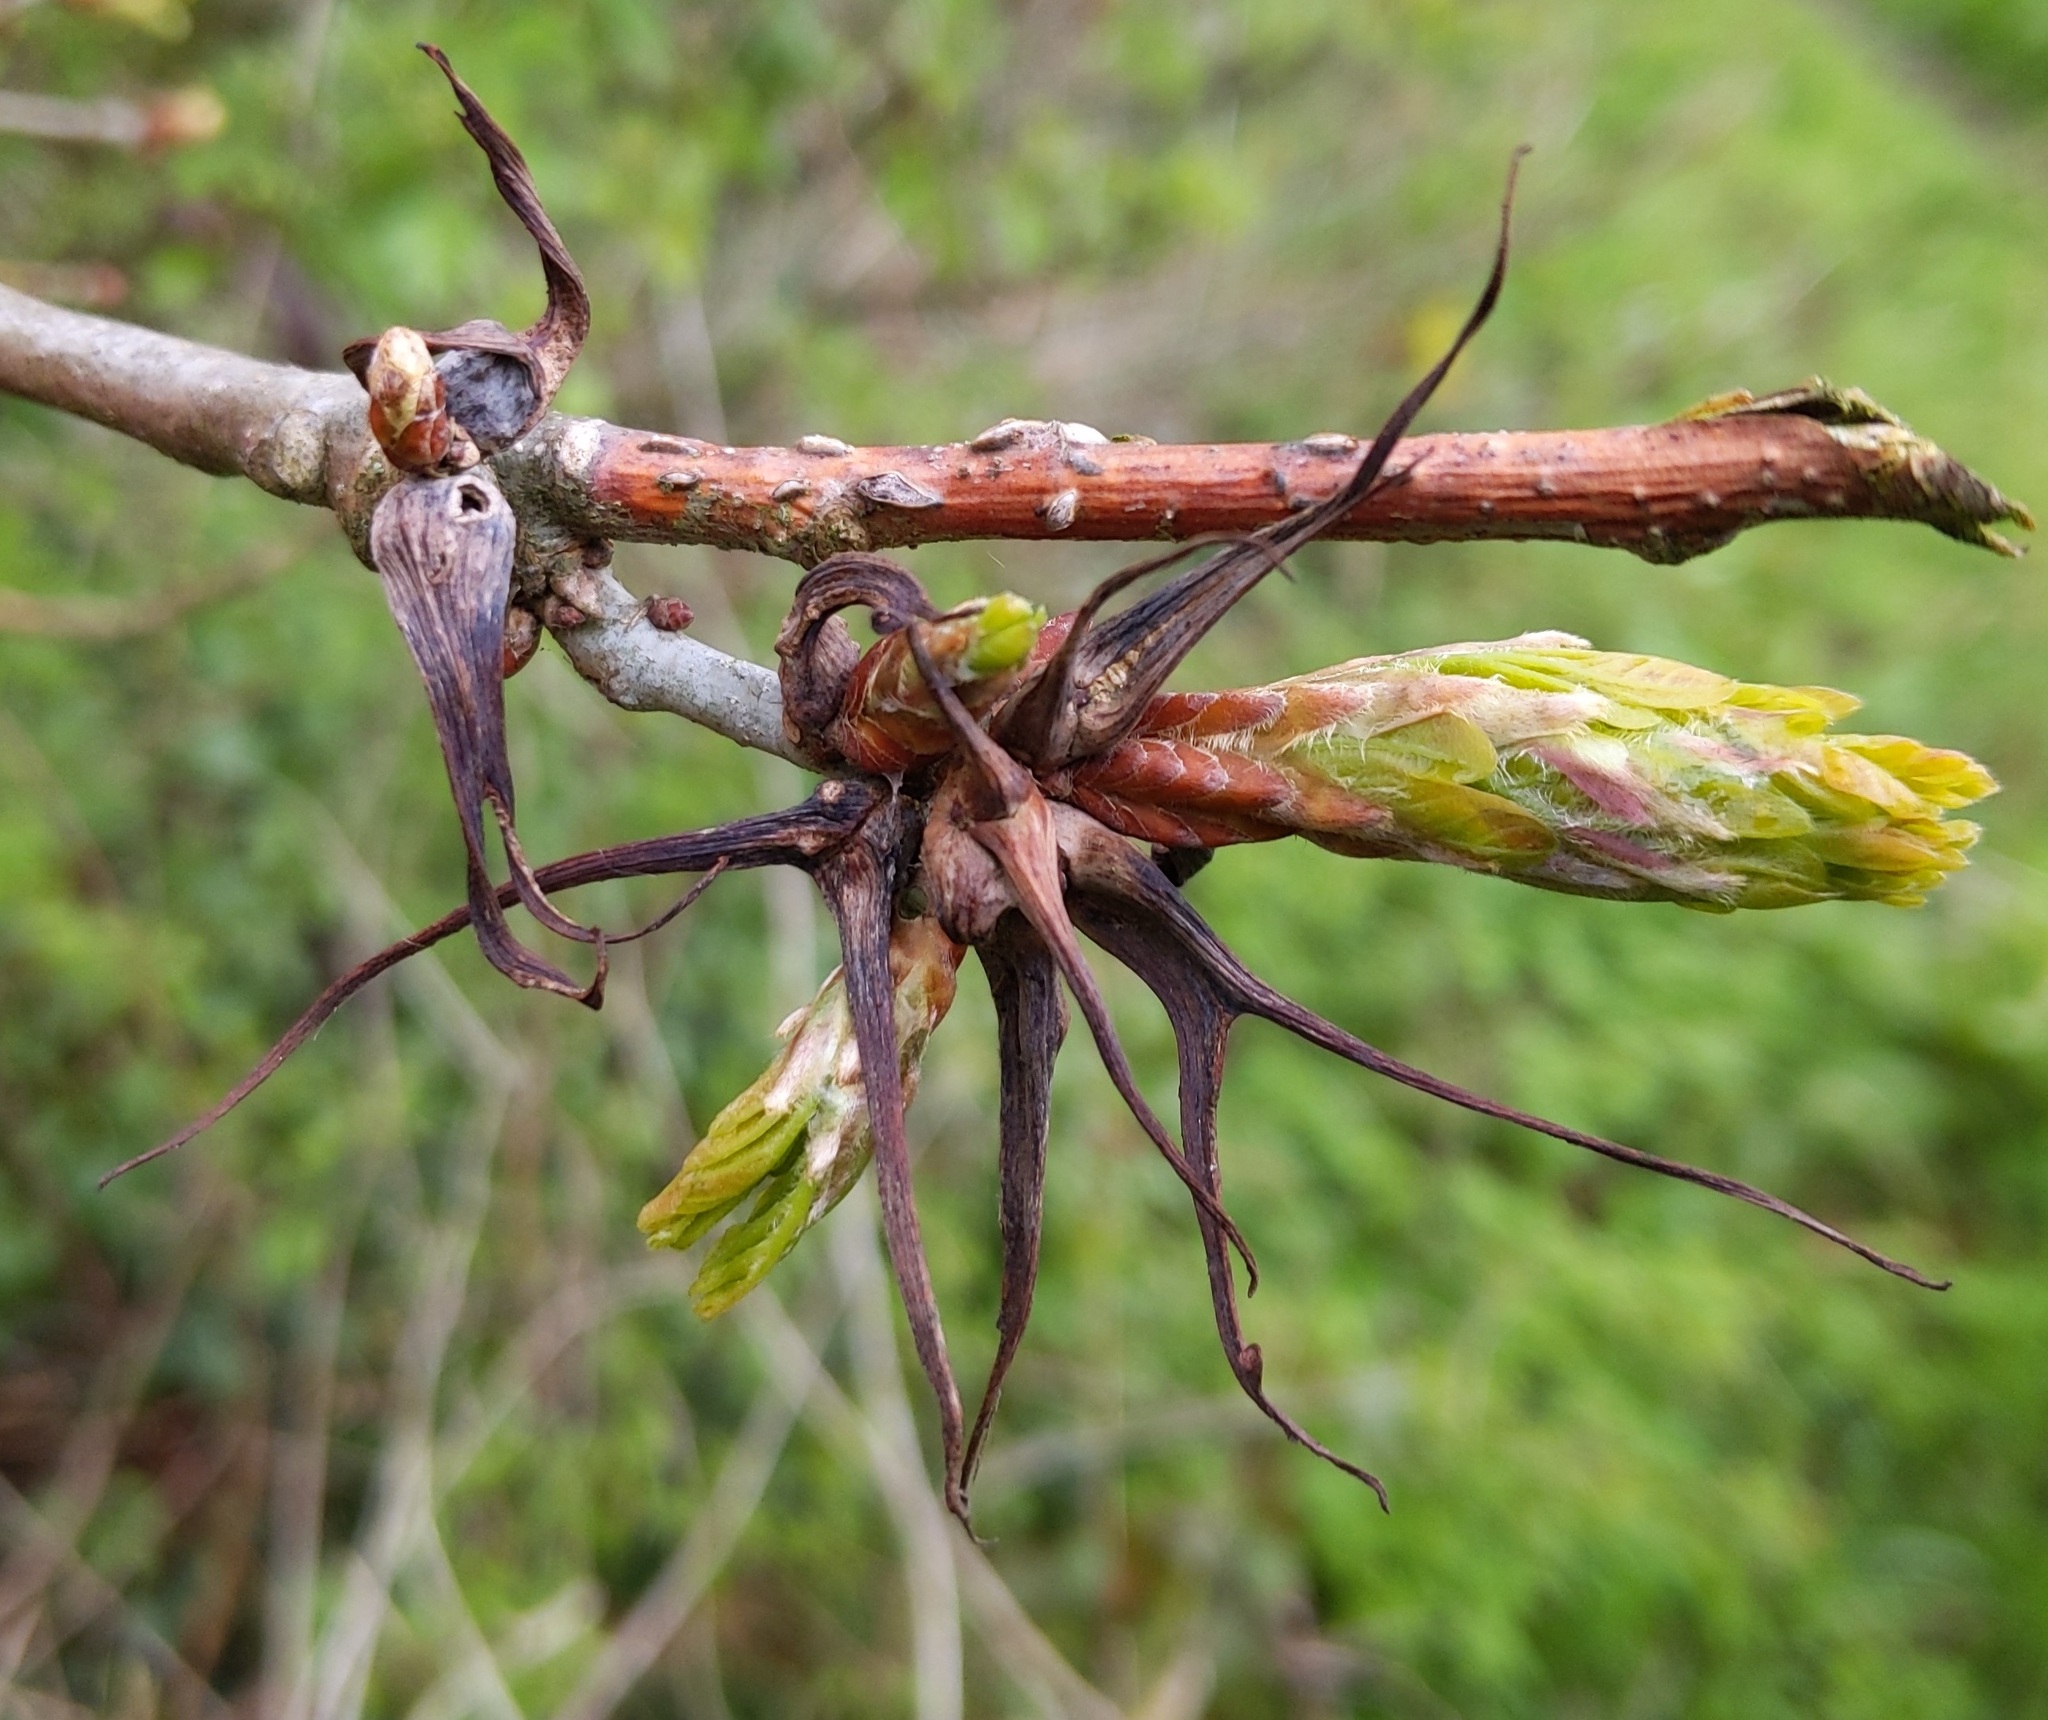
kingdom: Animalia
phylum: Arthropoda
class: Insecta
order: Hymenoptera
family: Cynipidae
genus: Andricus
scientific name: Andricus aries
